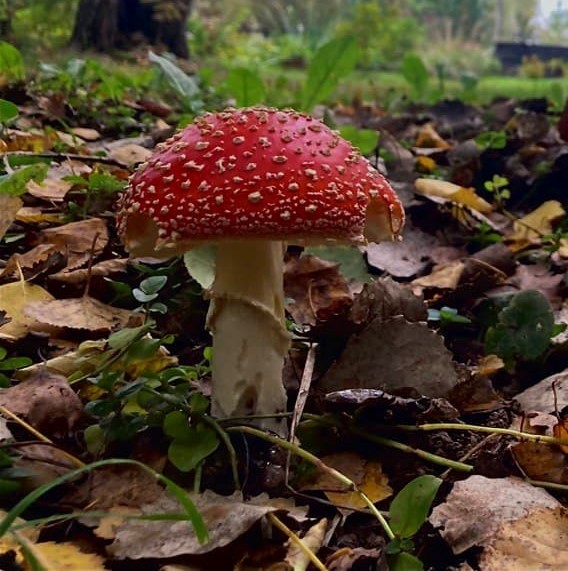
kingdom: Fungi
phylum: Basidiomycota
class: Agaricomycetes
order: Agaricales
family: Amanitaceae
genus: Amanita
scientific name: Amanita muscaria
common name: Fly agaric
